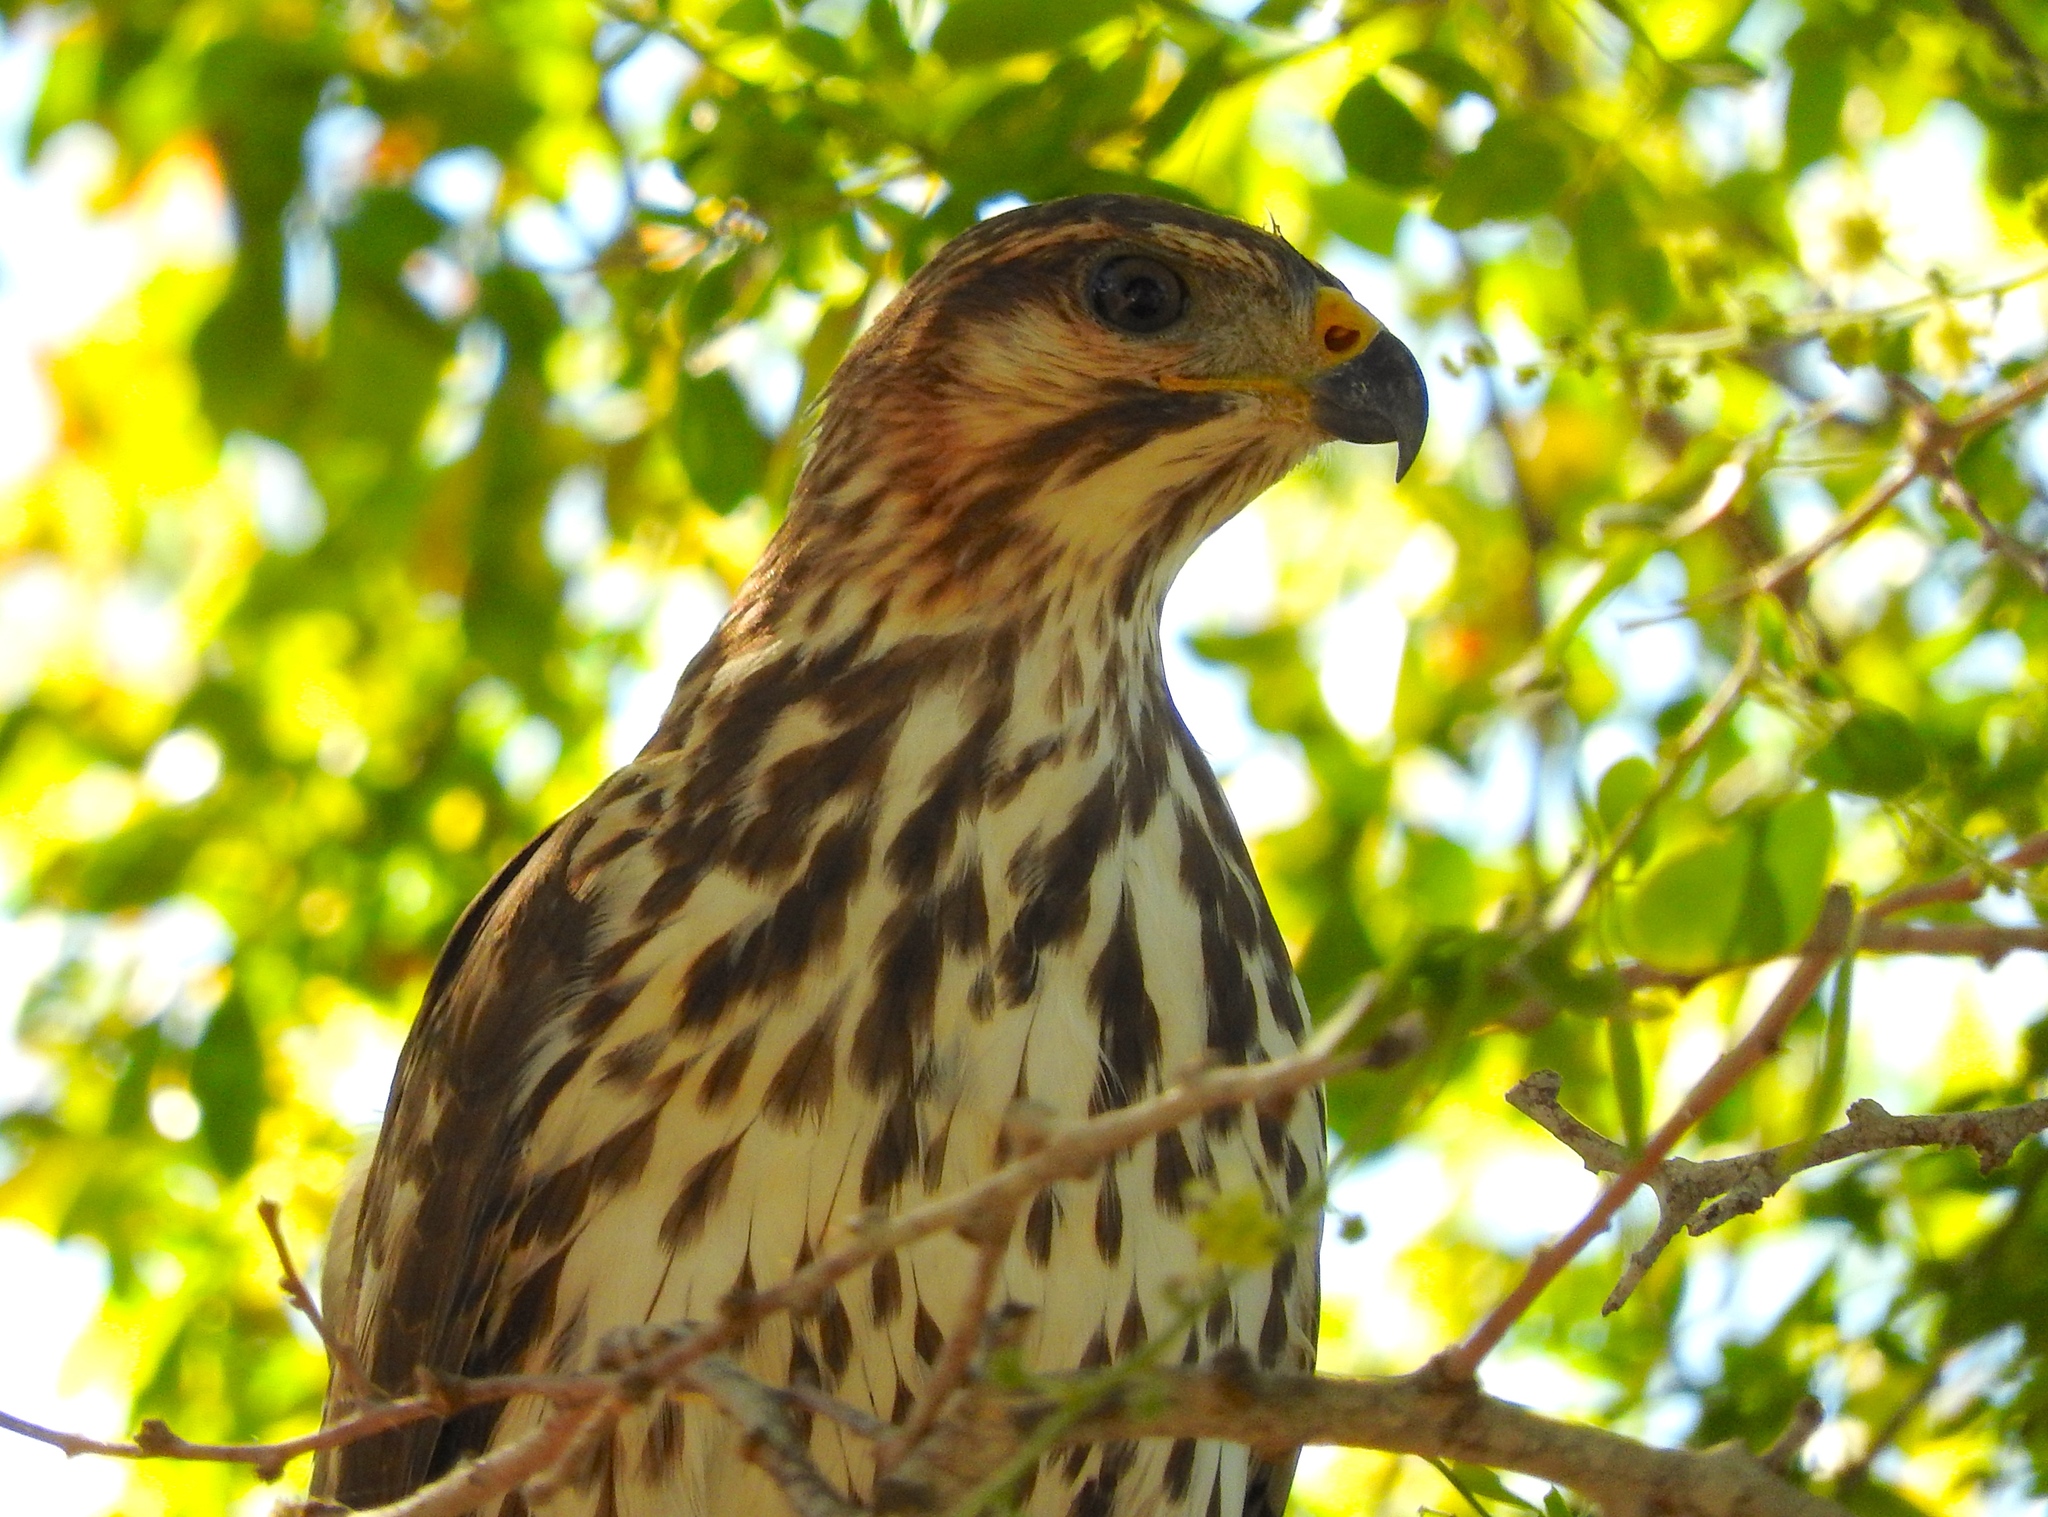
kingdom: Animalia
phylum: Chordata
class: Aves
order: Accipitriformes
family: Accipitridae
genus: Buteo
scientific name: Buteo nitidus
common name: Grey-lined hawk
